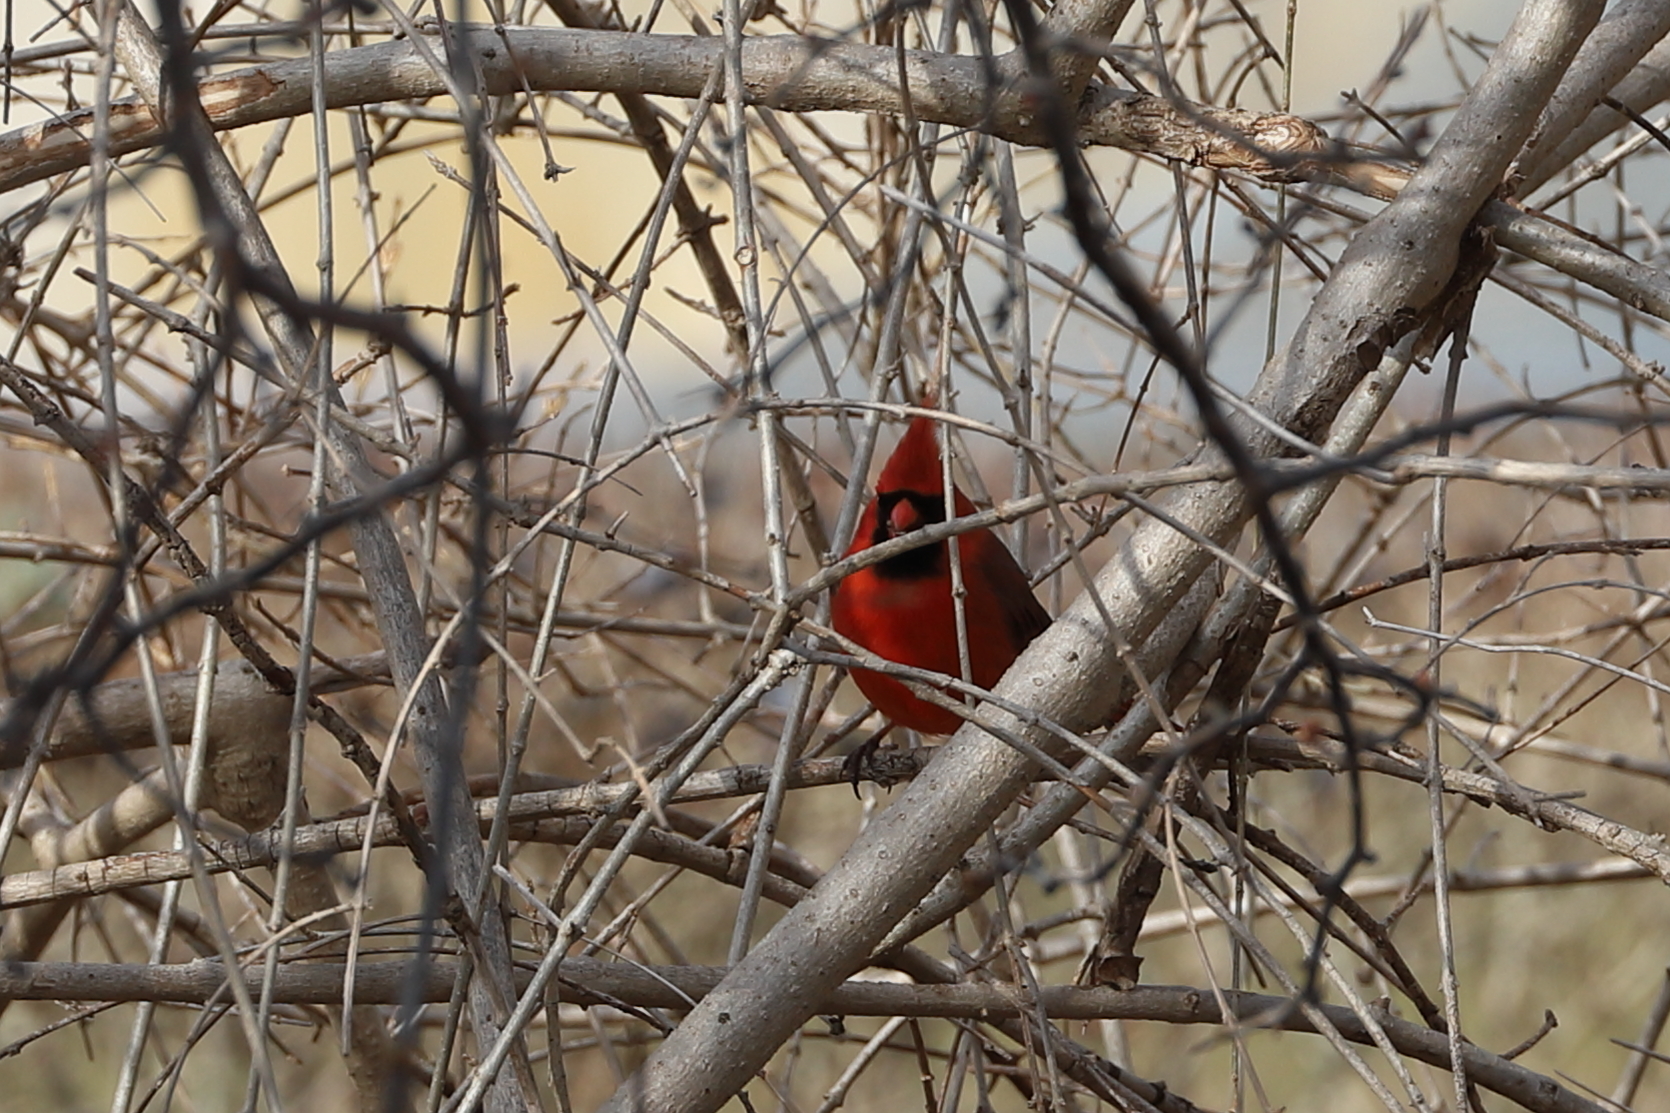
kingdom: Animalia
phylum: Chordata
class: Aves
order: Passeriformes
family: Cardinalidae
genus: Cardinalis
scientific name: Cardinalis cardinalis
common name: Northern cardinal
